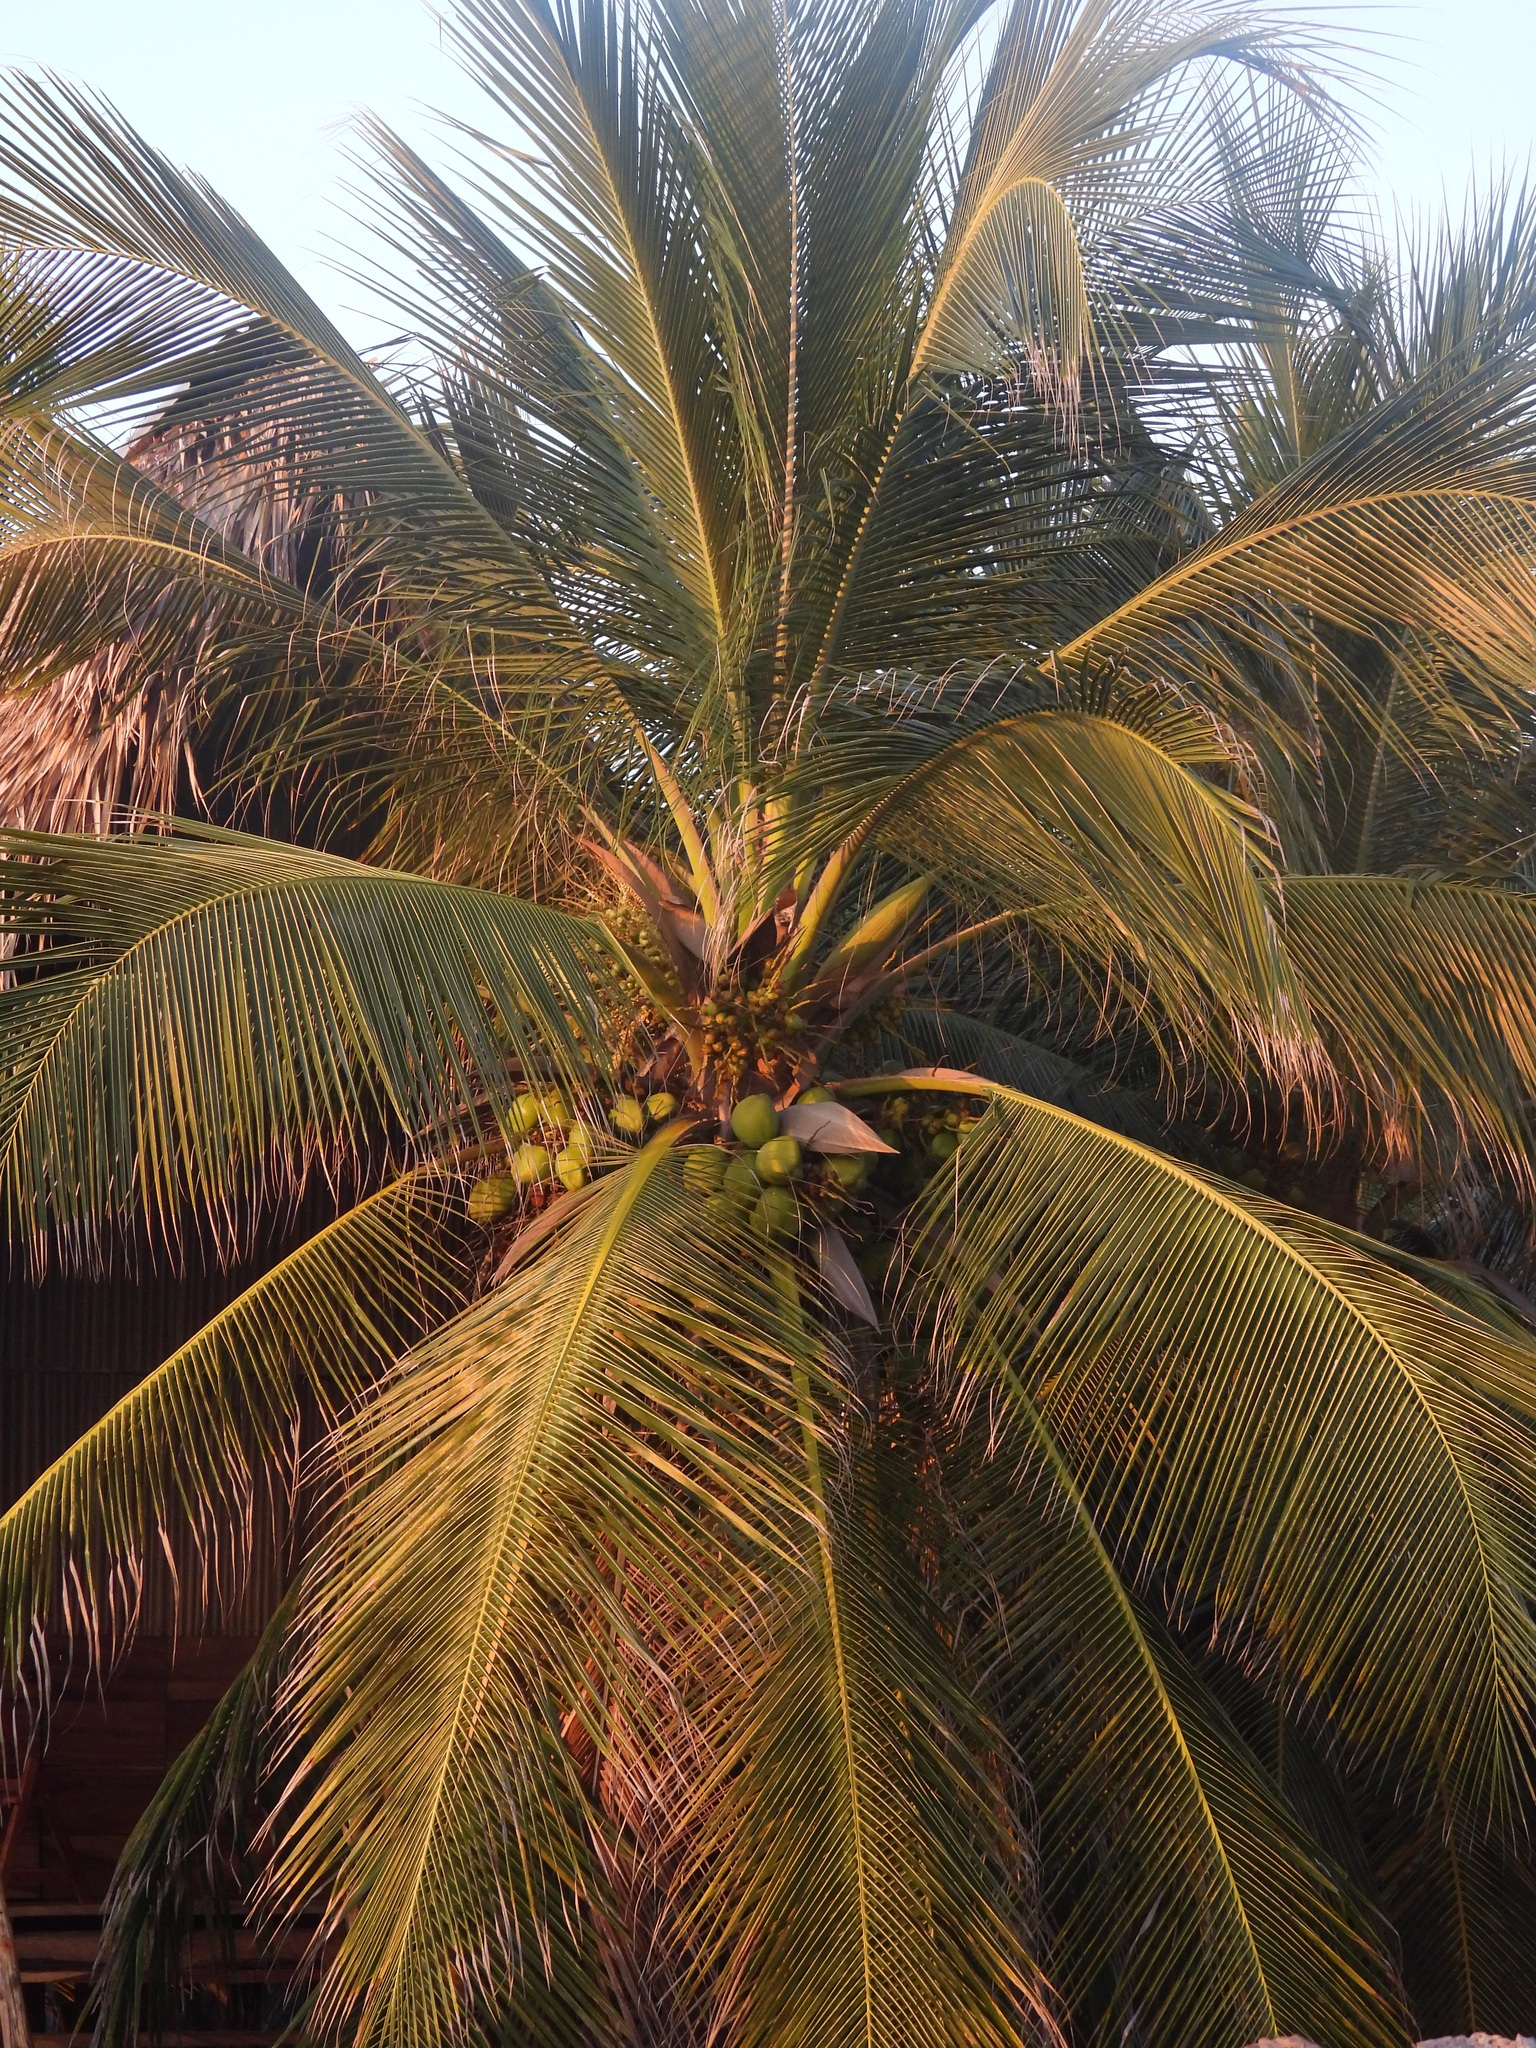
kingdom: Plantae
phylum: Tracheophyta
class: Liliopsida
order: Arecales
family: Arecaceae
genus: Cocos
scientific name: Cocos nucifera
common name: Coconut palm
